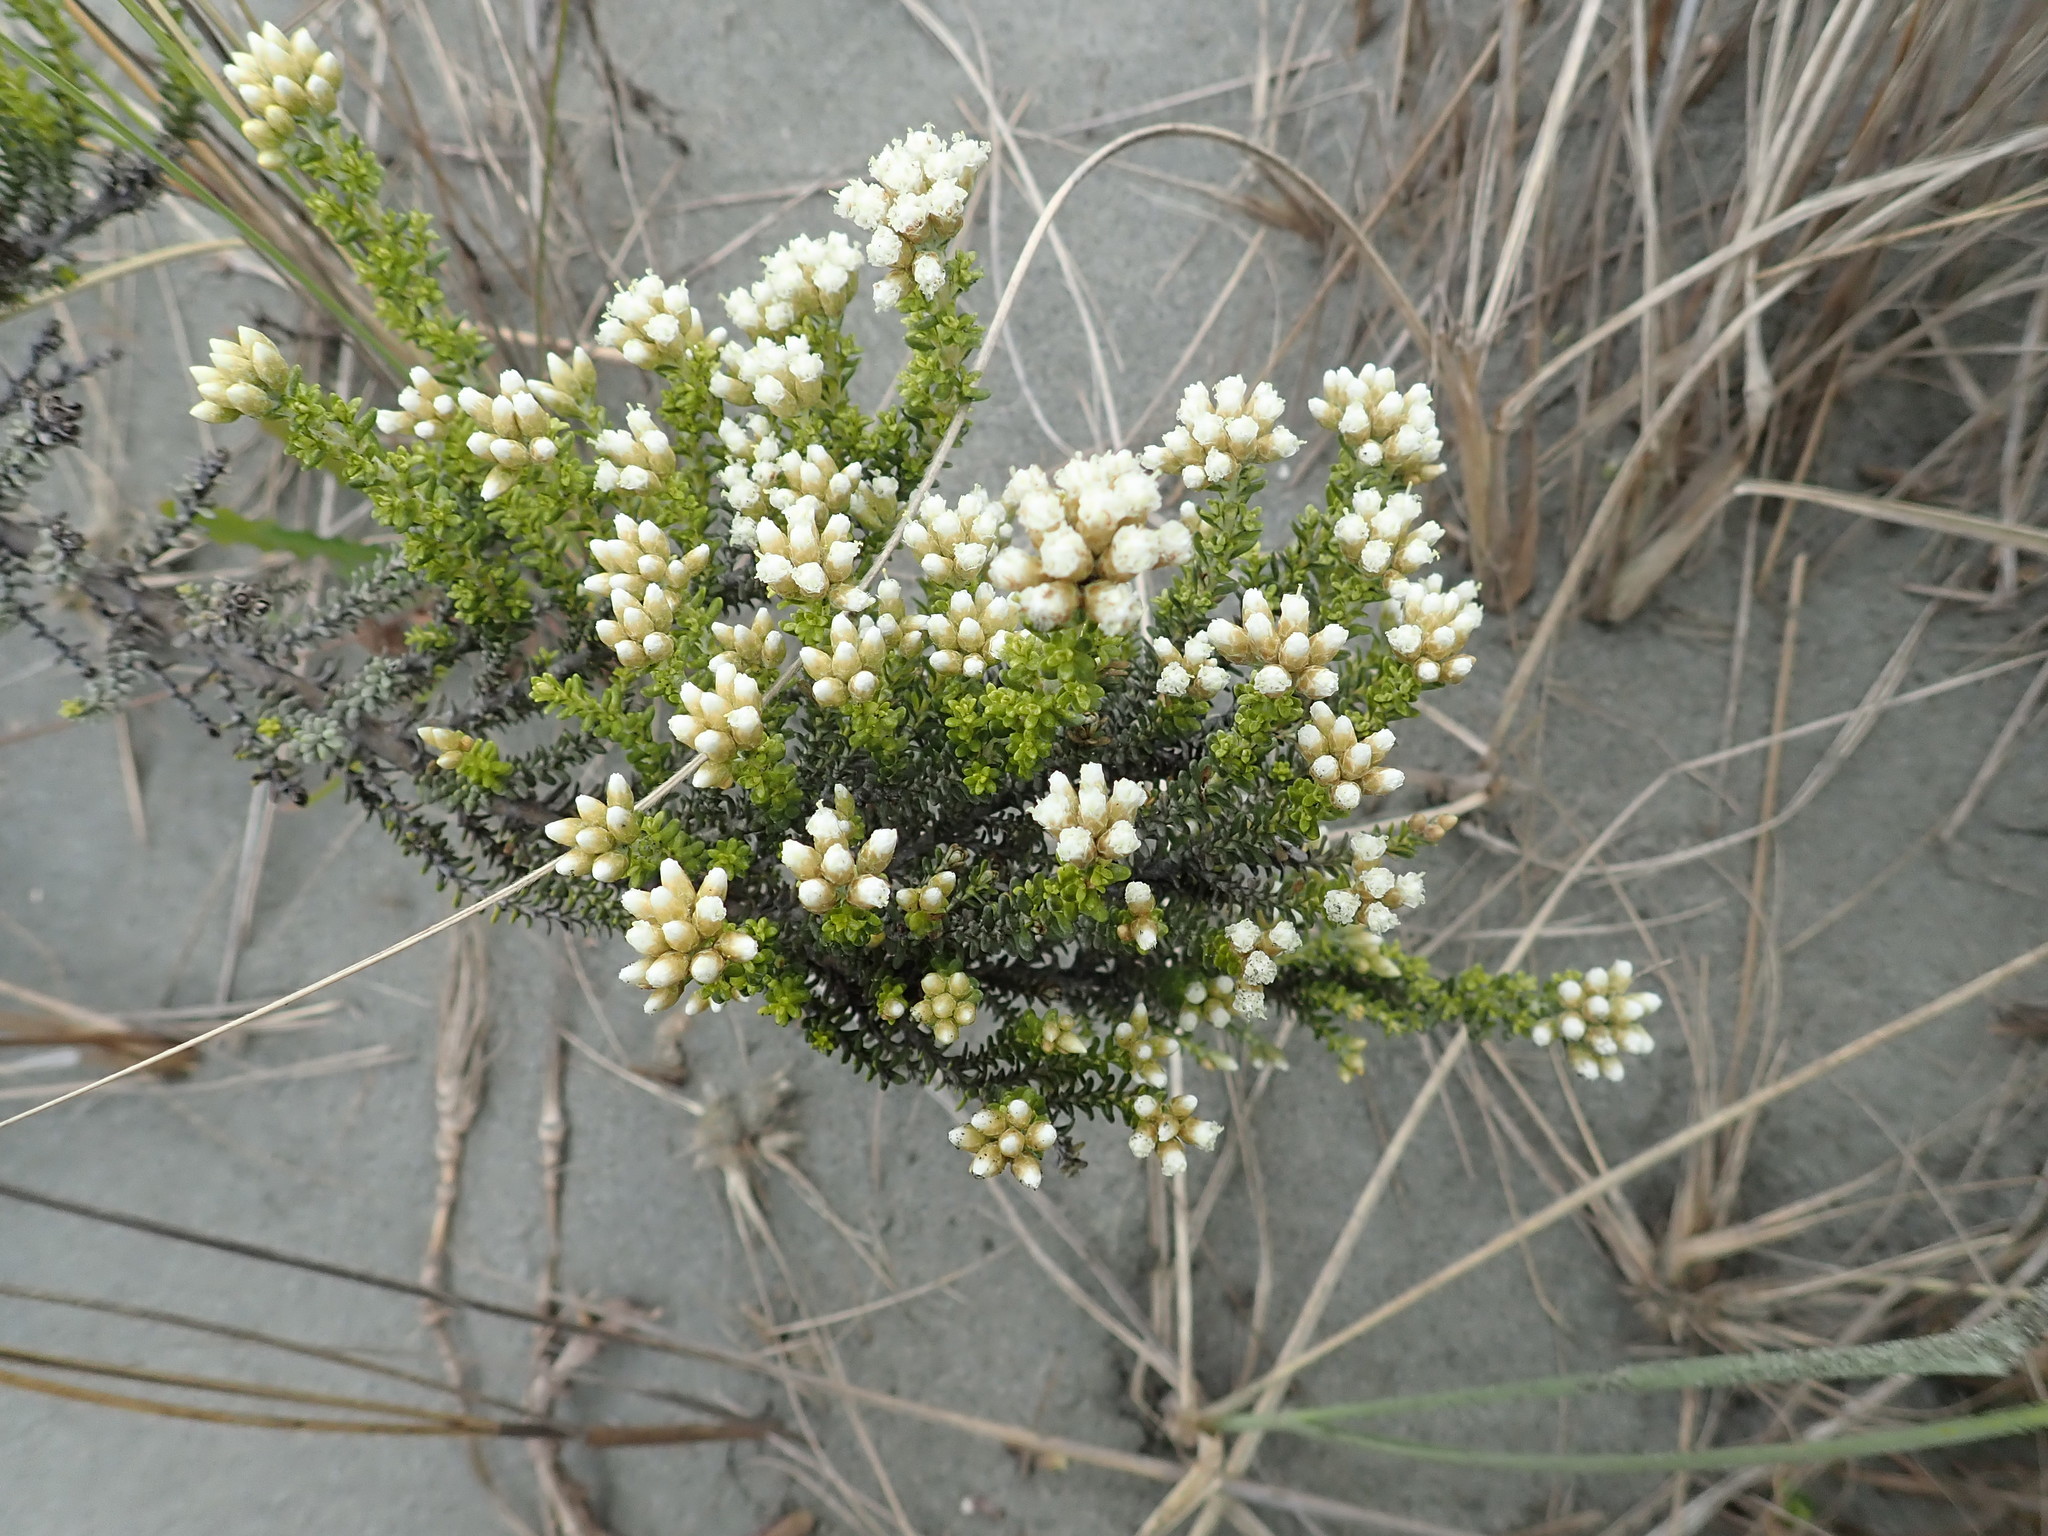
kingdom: Plantae
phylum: Tracheophyta
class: Magnoliopsida
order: Asterales
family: Asteraceae
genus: Ozothamnus
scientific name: Ozothamnus leptophyllus
